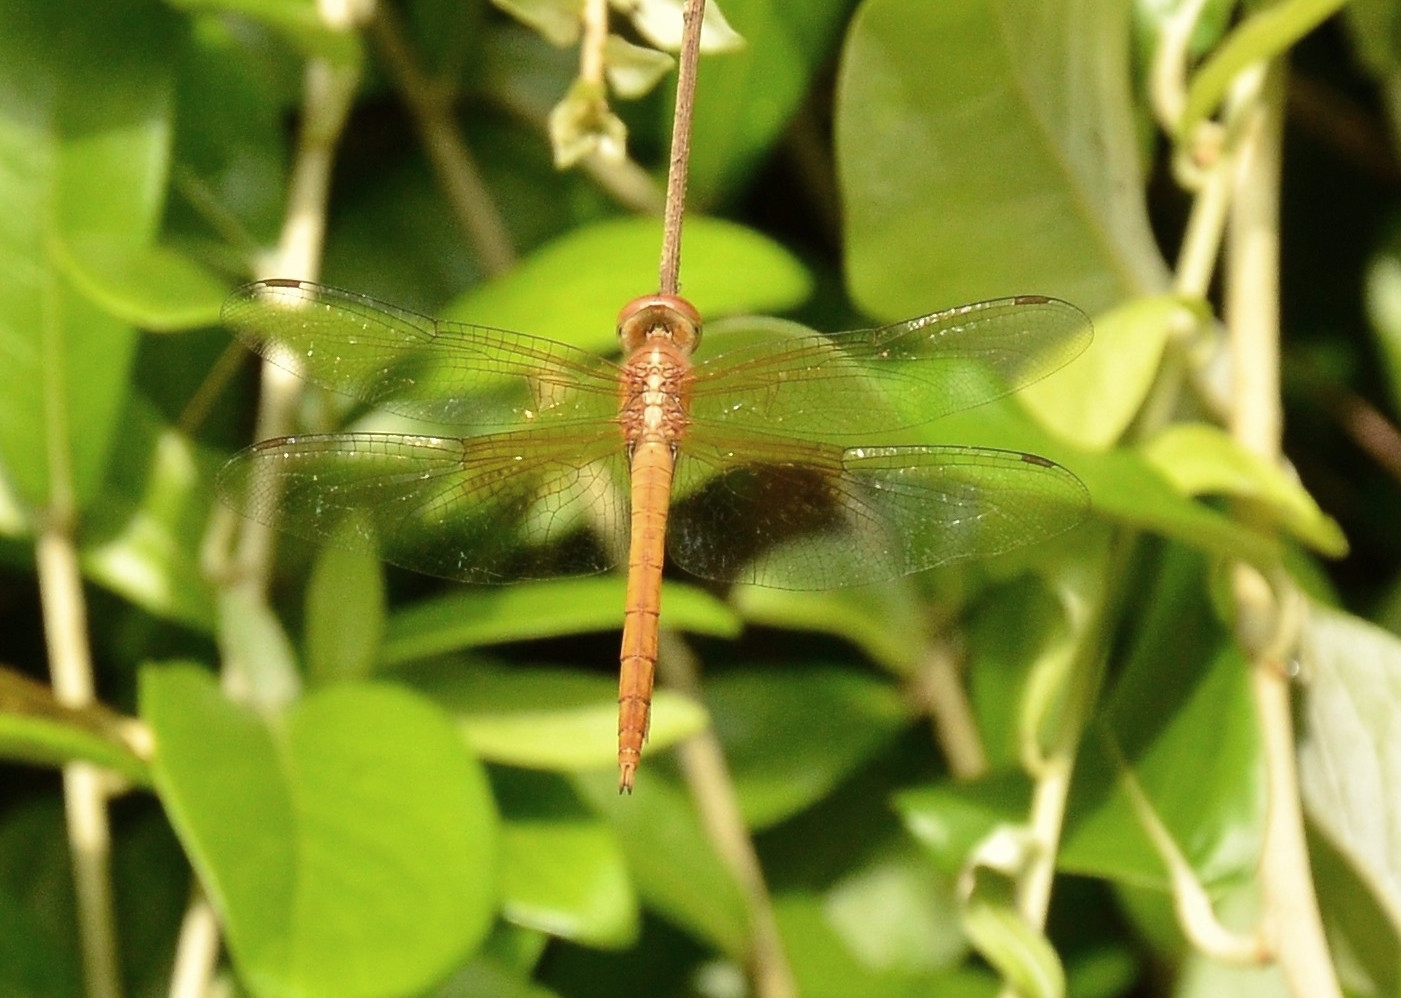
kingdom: Animalia
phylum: Arthropoda
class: Insecta
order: Odonata
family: Libellulidae
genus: Tholymis
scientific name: Tholymis tillarga
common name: Coral-tailed cloud wing
